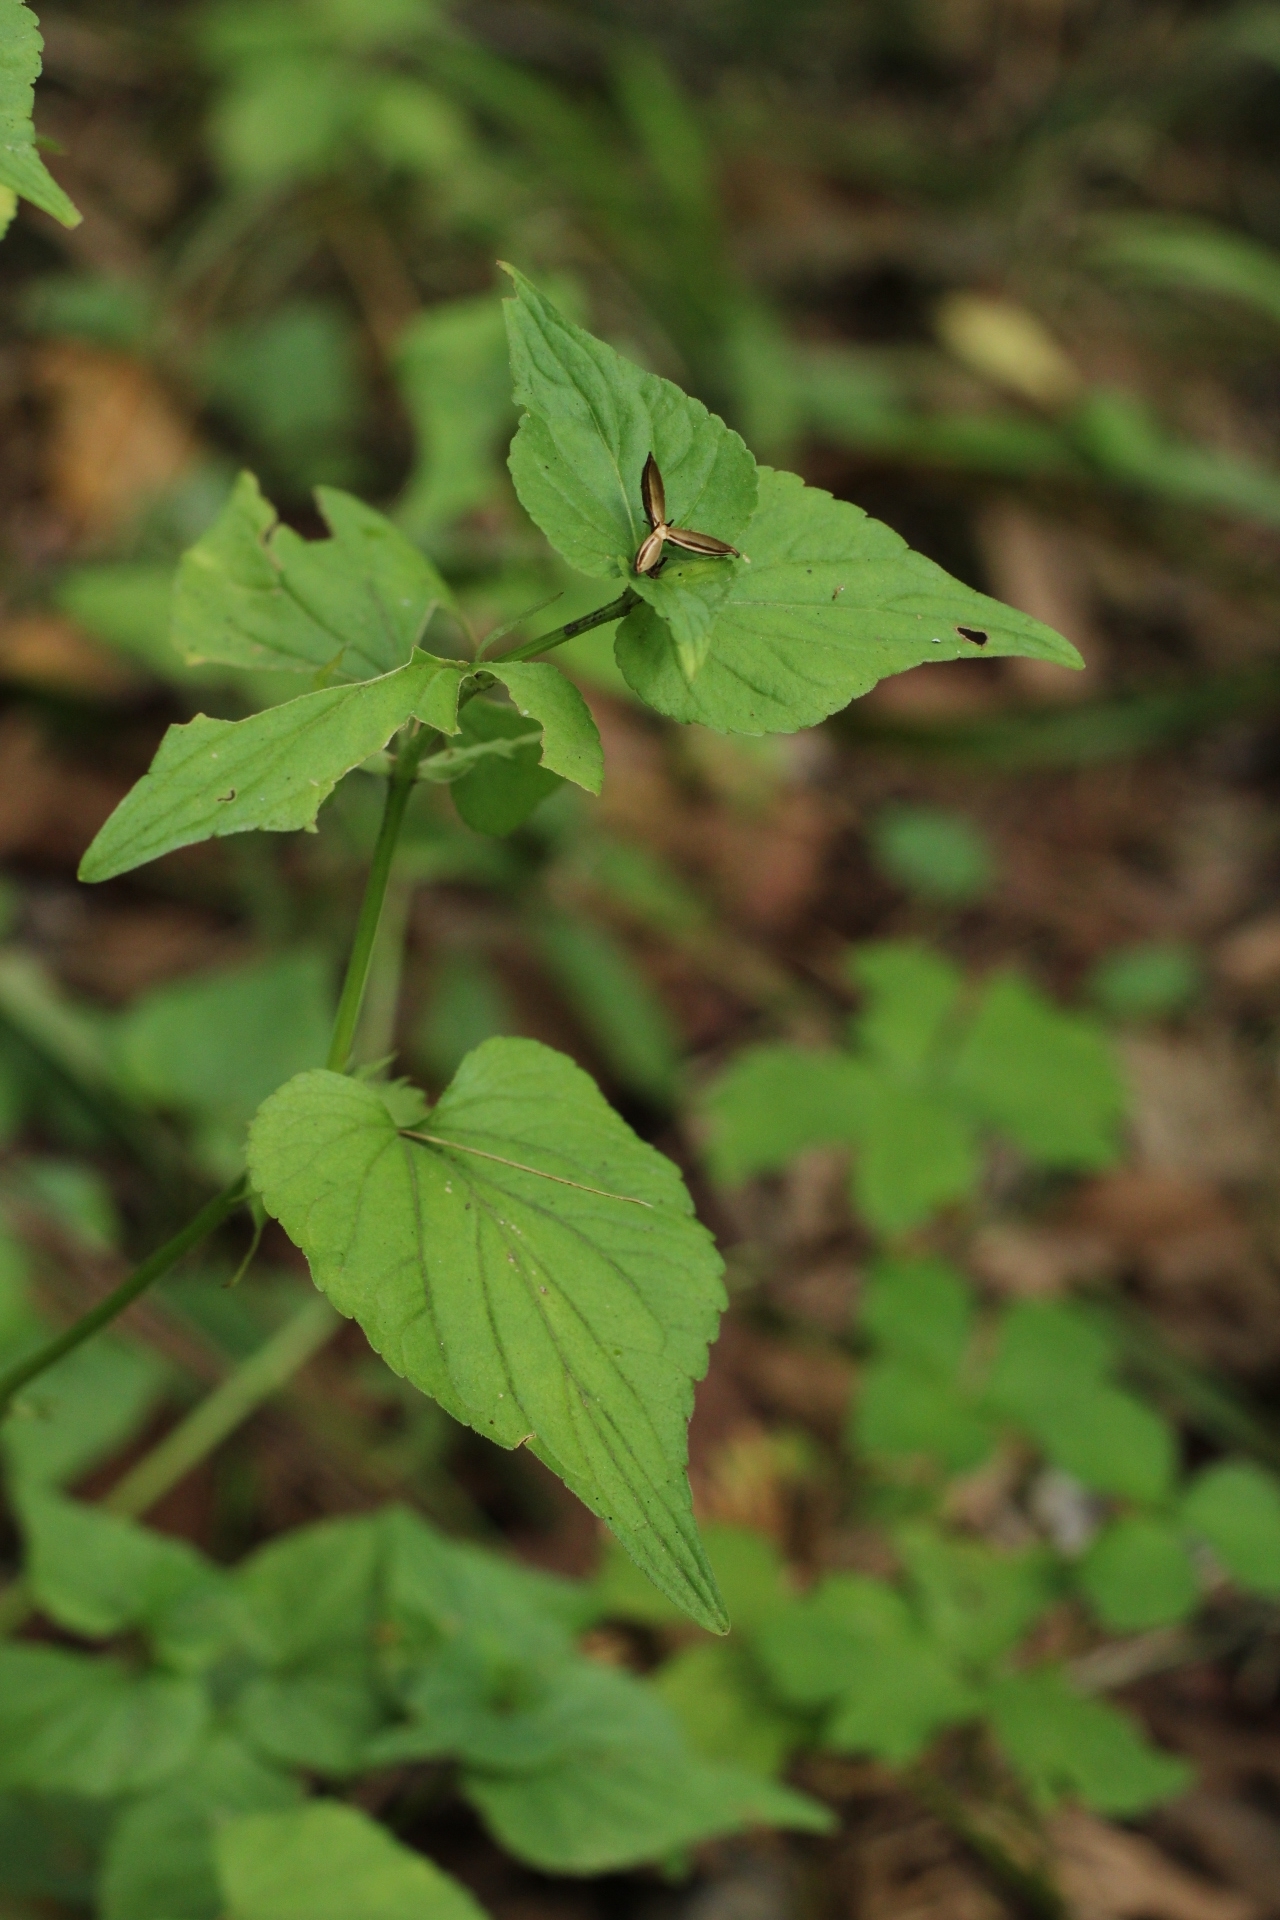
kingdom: Plantae
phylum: Tracheophyta
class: Magnoliopsida
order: Malpighiales
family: Violaceae
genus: Viola
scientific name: Viola acuminata
